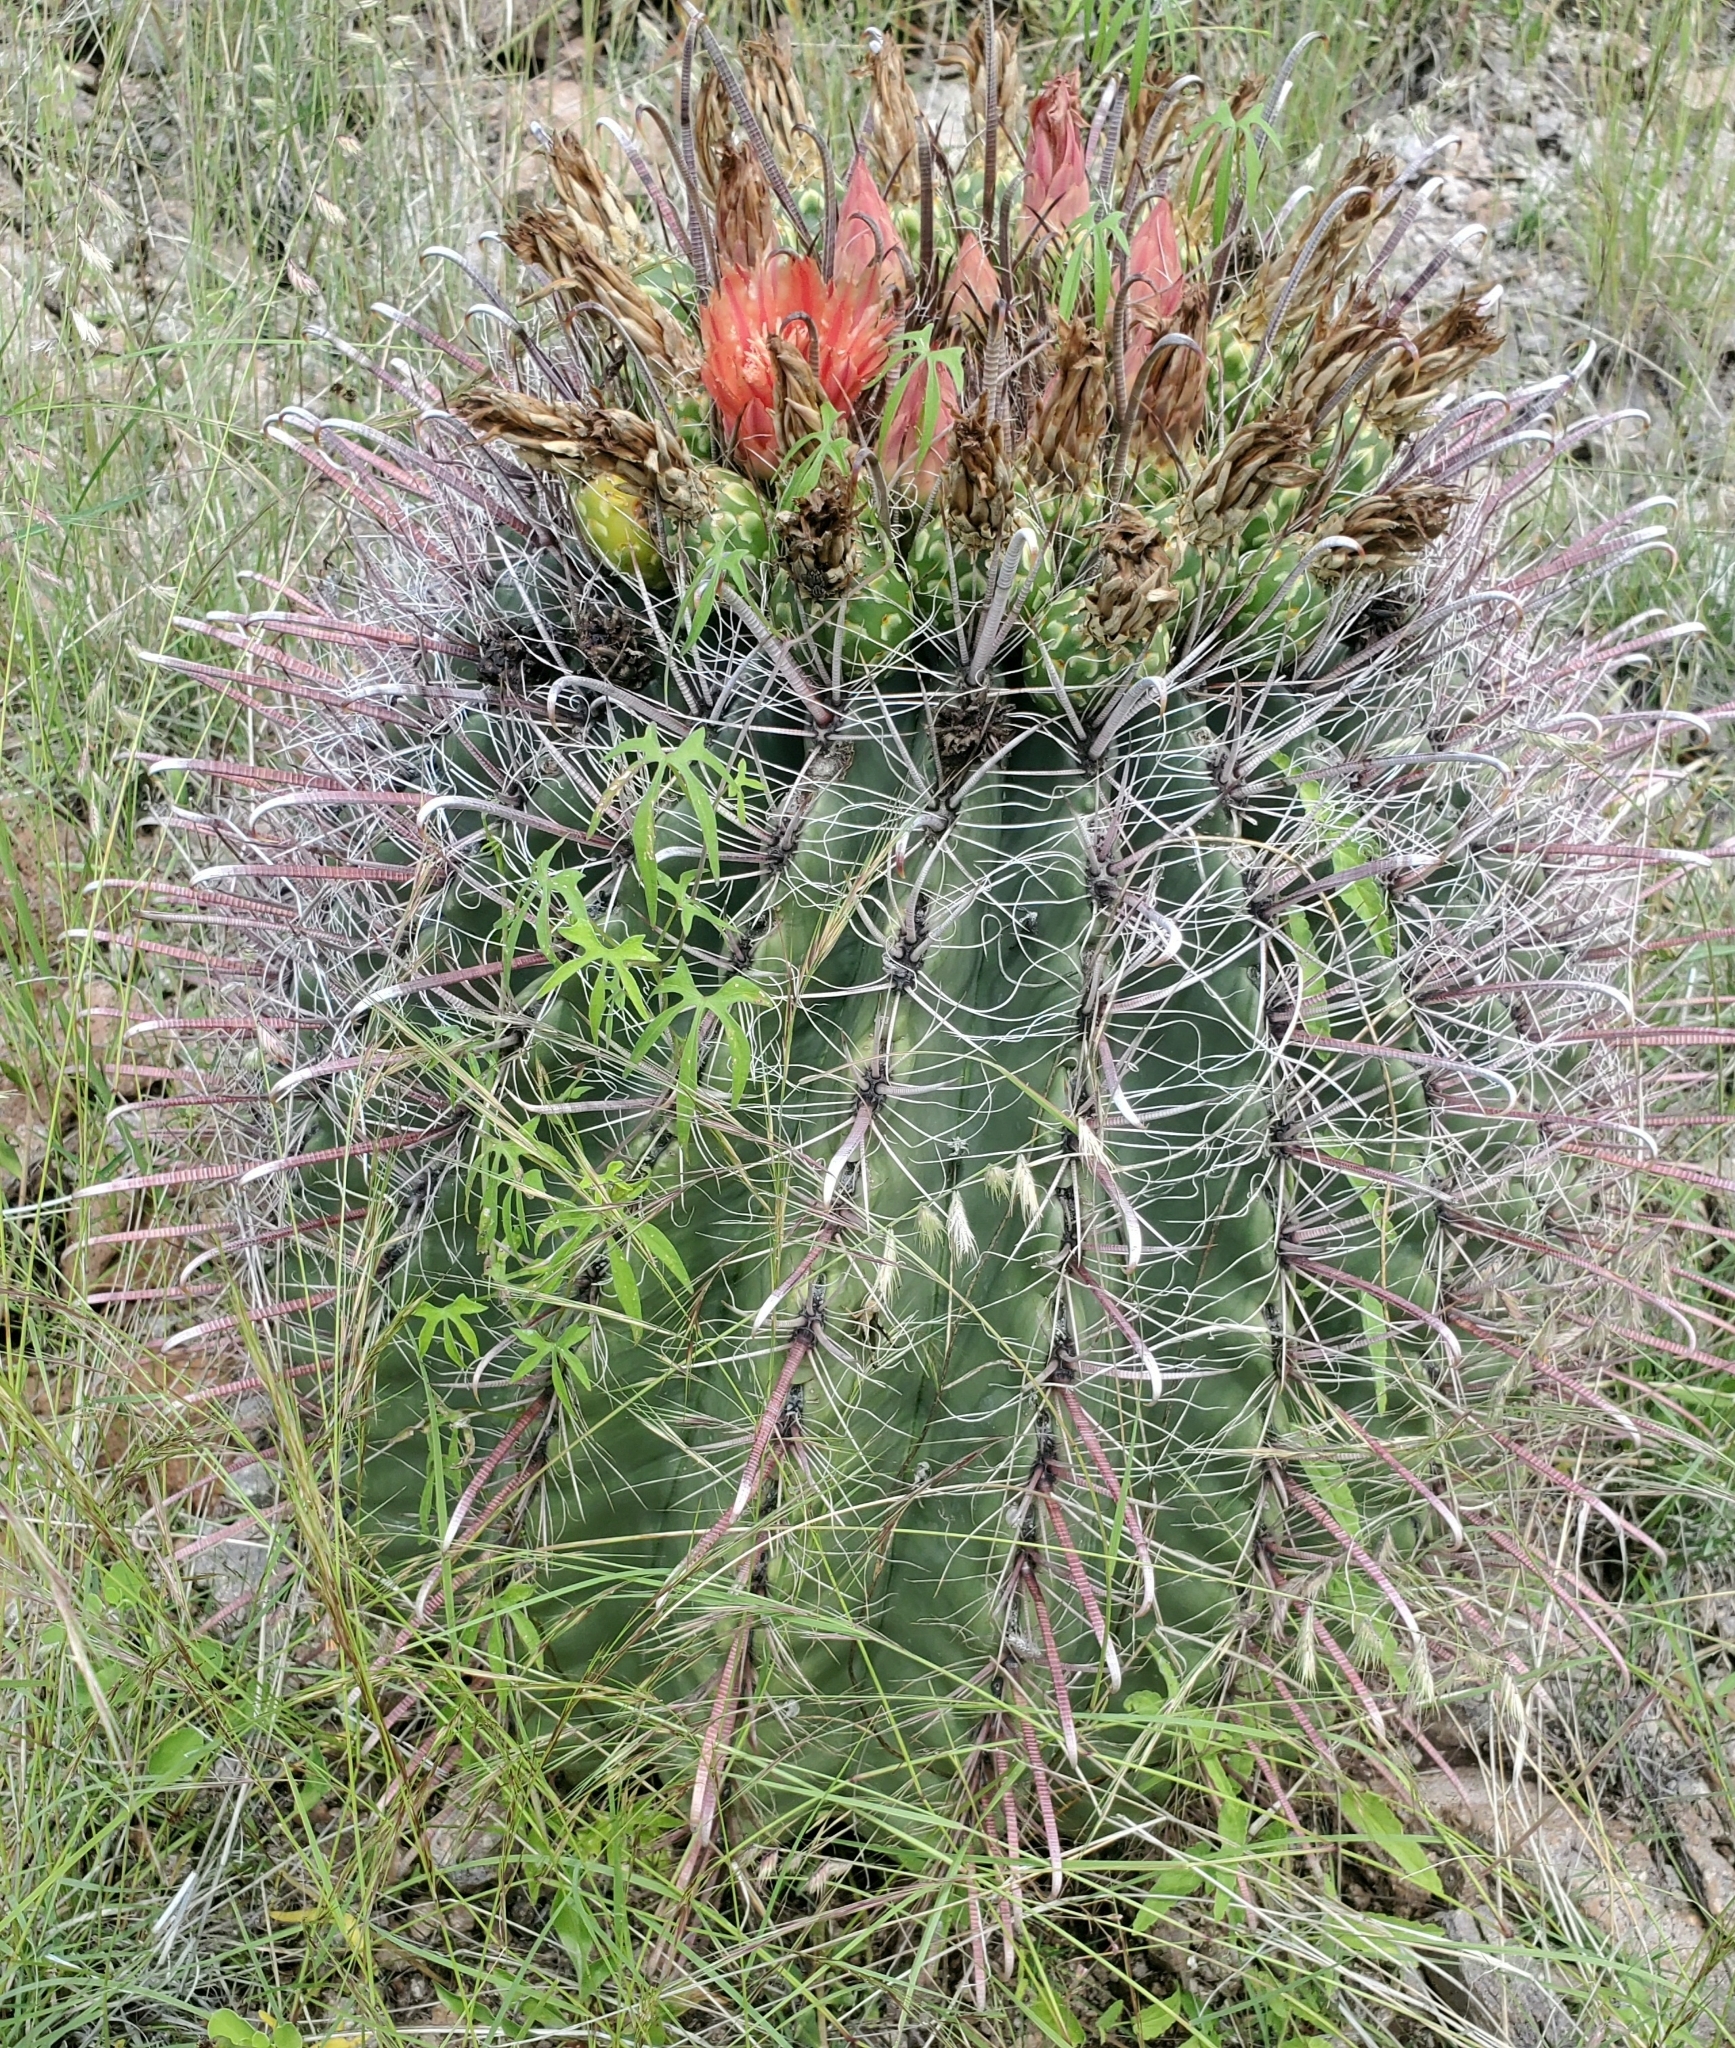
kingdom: Plantae
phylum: Tracheophyta
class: Magnoliopsida
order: Caryophyllales
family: Cactaceae
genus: Ferocactus
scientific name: Ferocactus wislizeni
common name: Candy barrel cactus
